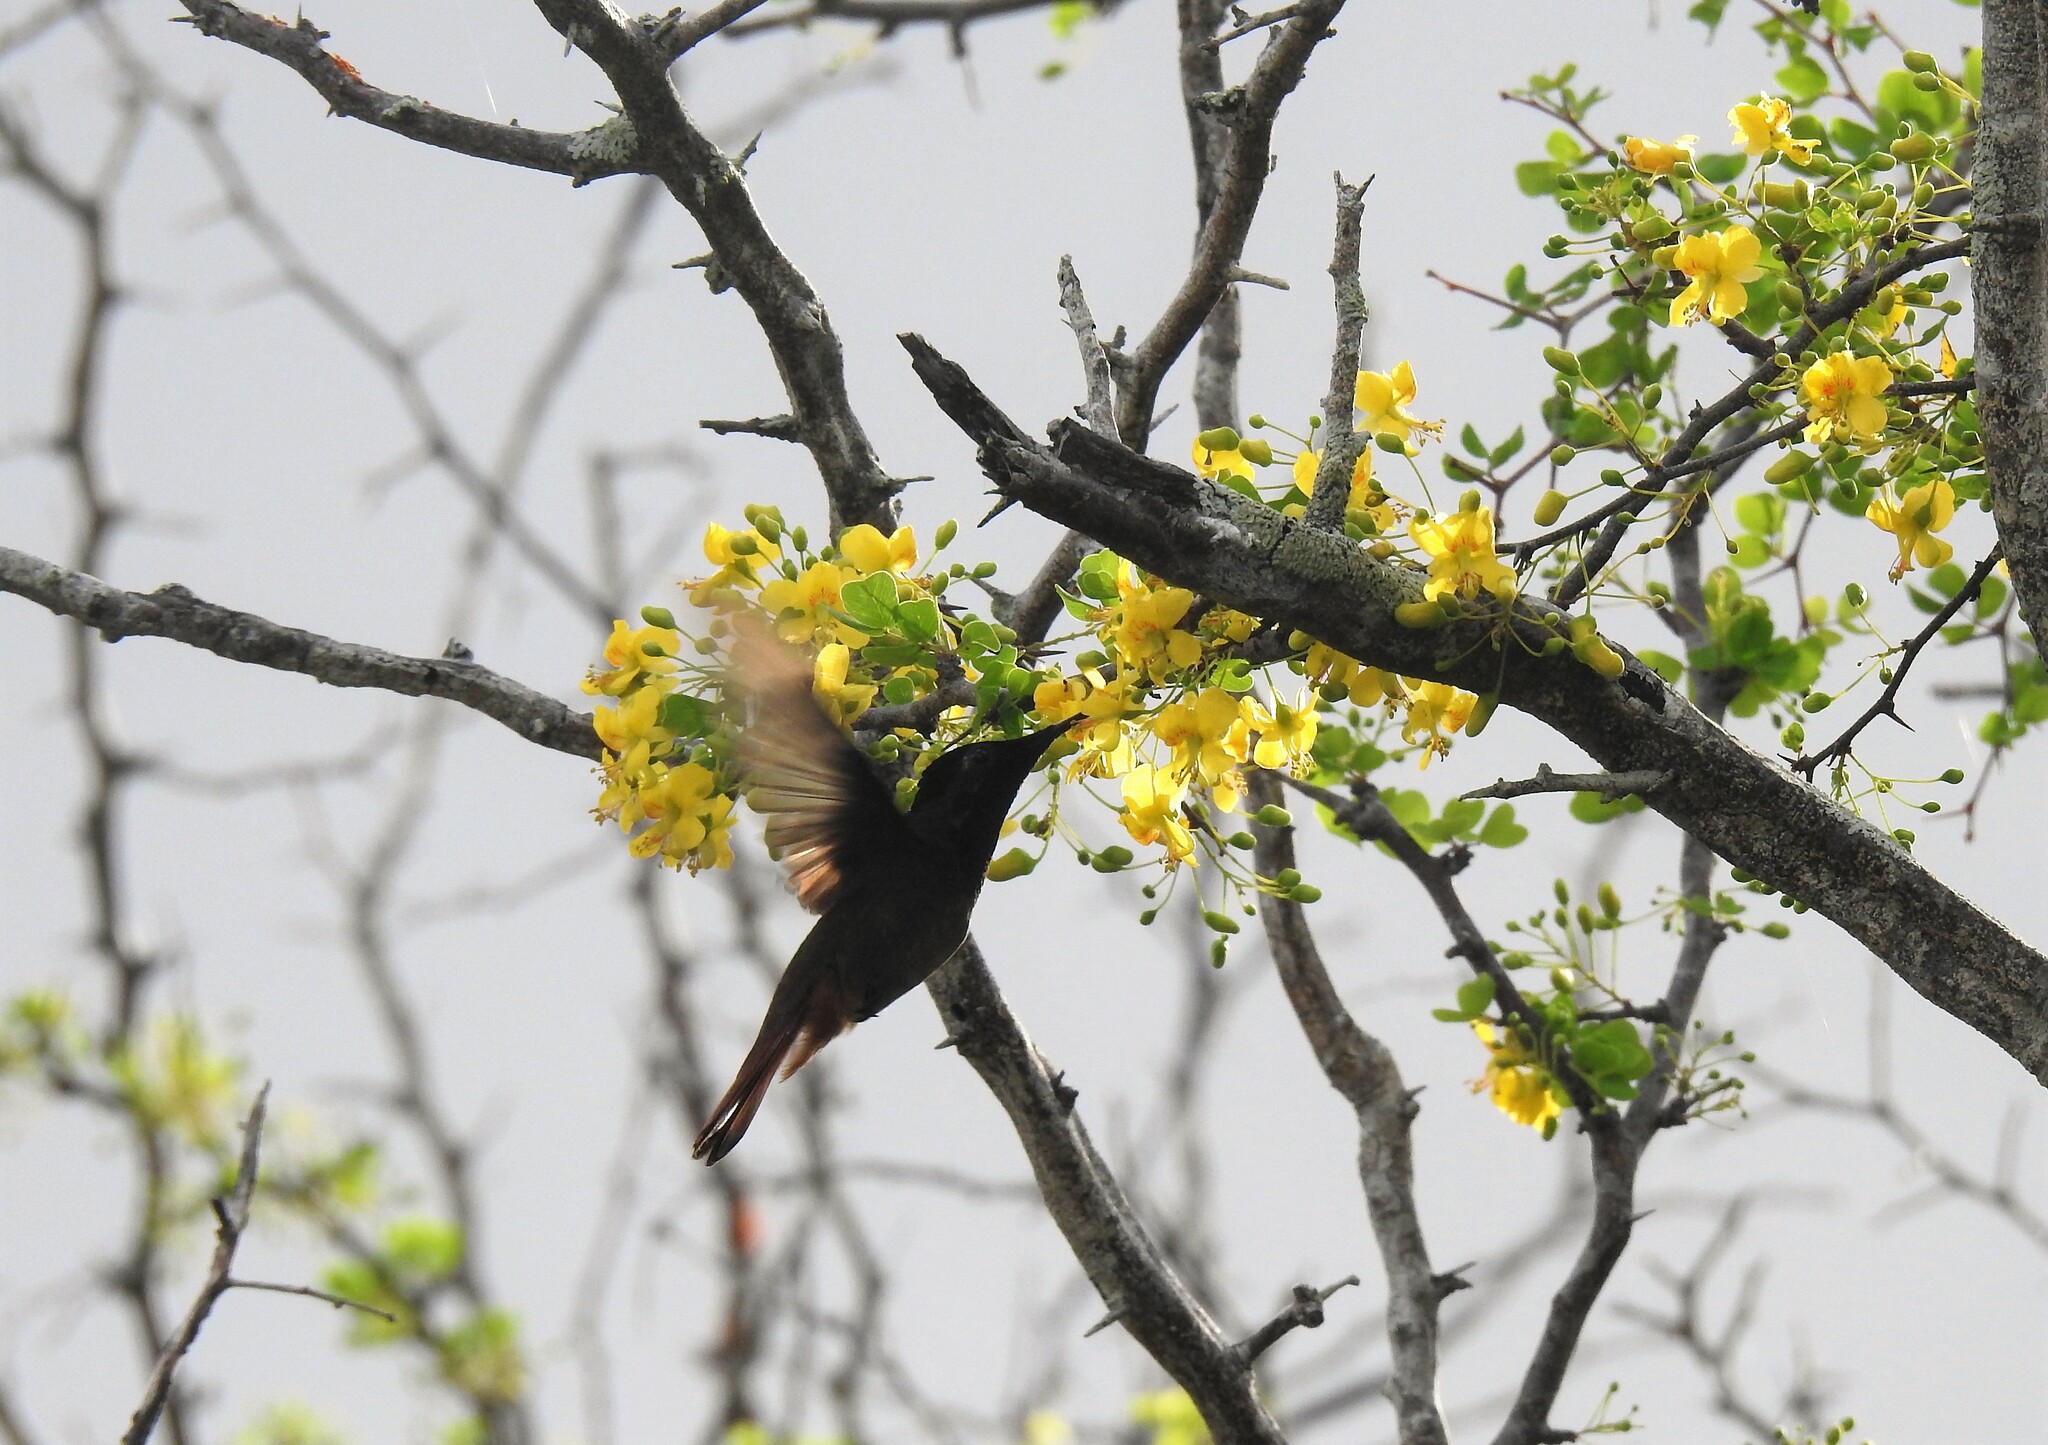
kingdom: Animalia
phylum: Chordata
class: Aves
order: Apodiformes
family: Trochilidae
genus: Chrysolampis
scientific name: Chrysolampis mosquitus
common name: Ruby-topaz hummingbird
